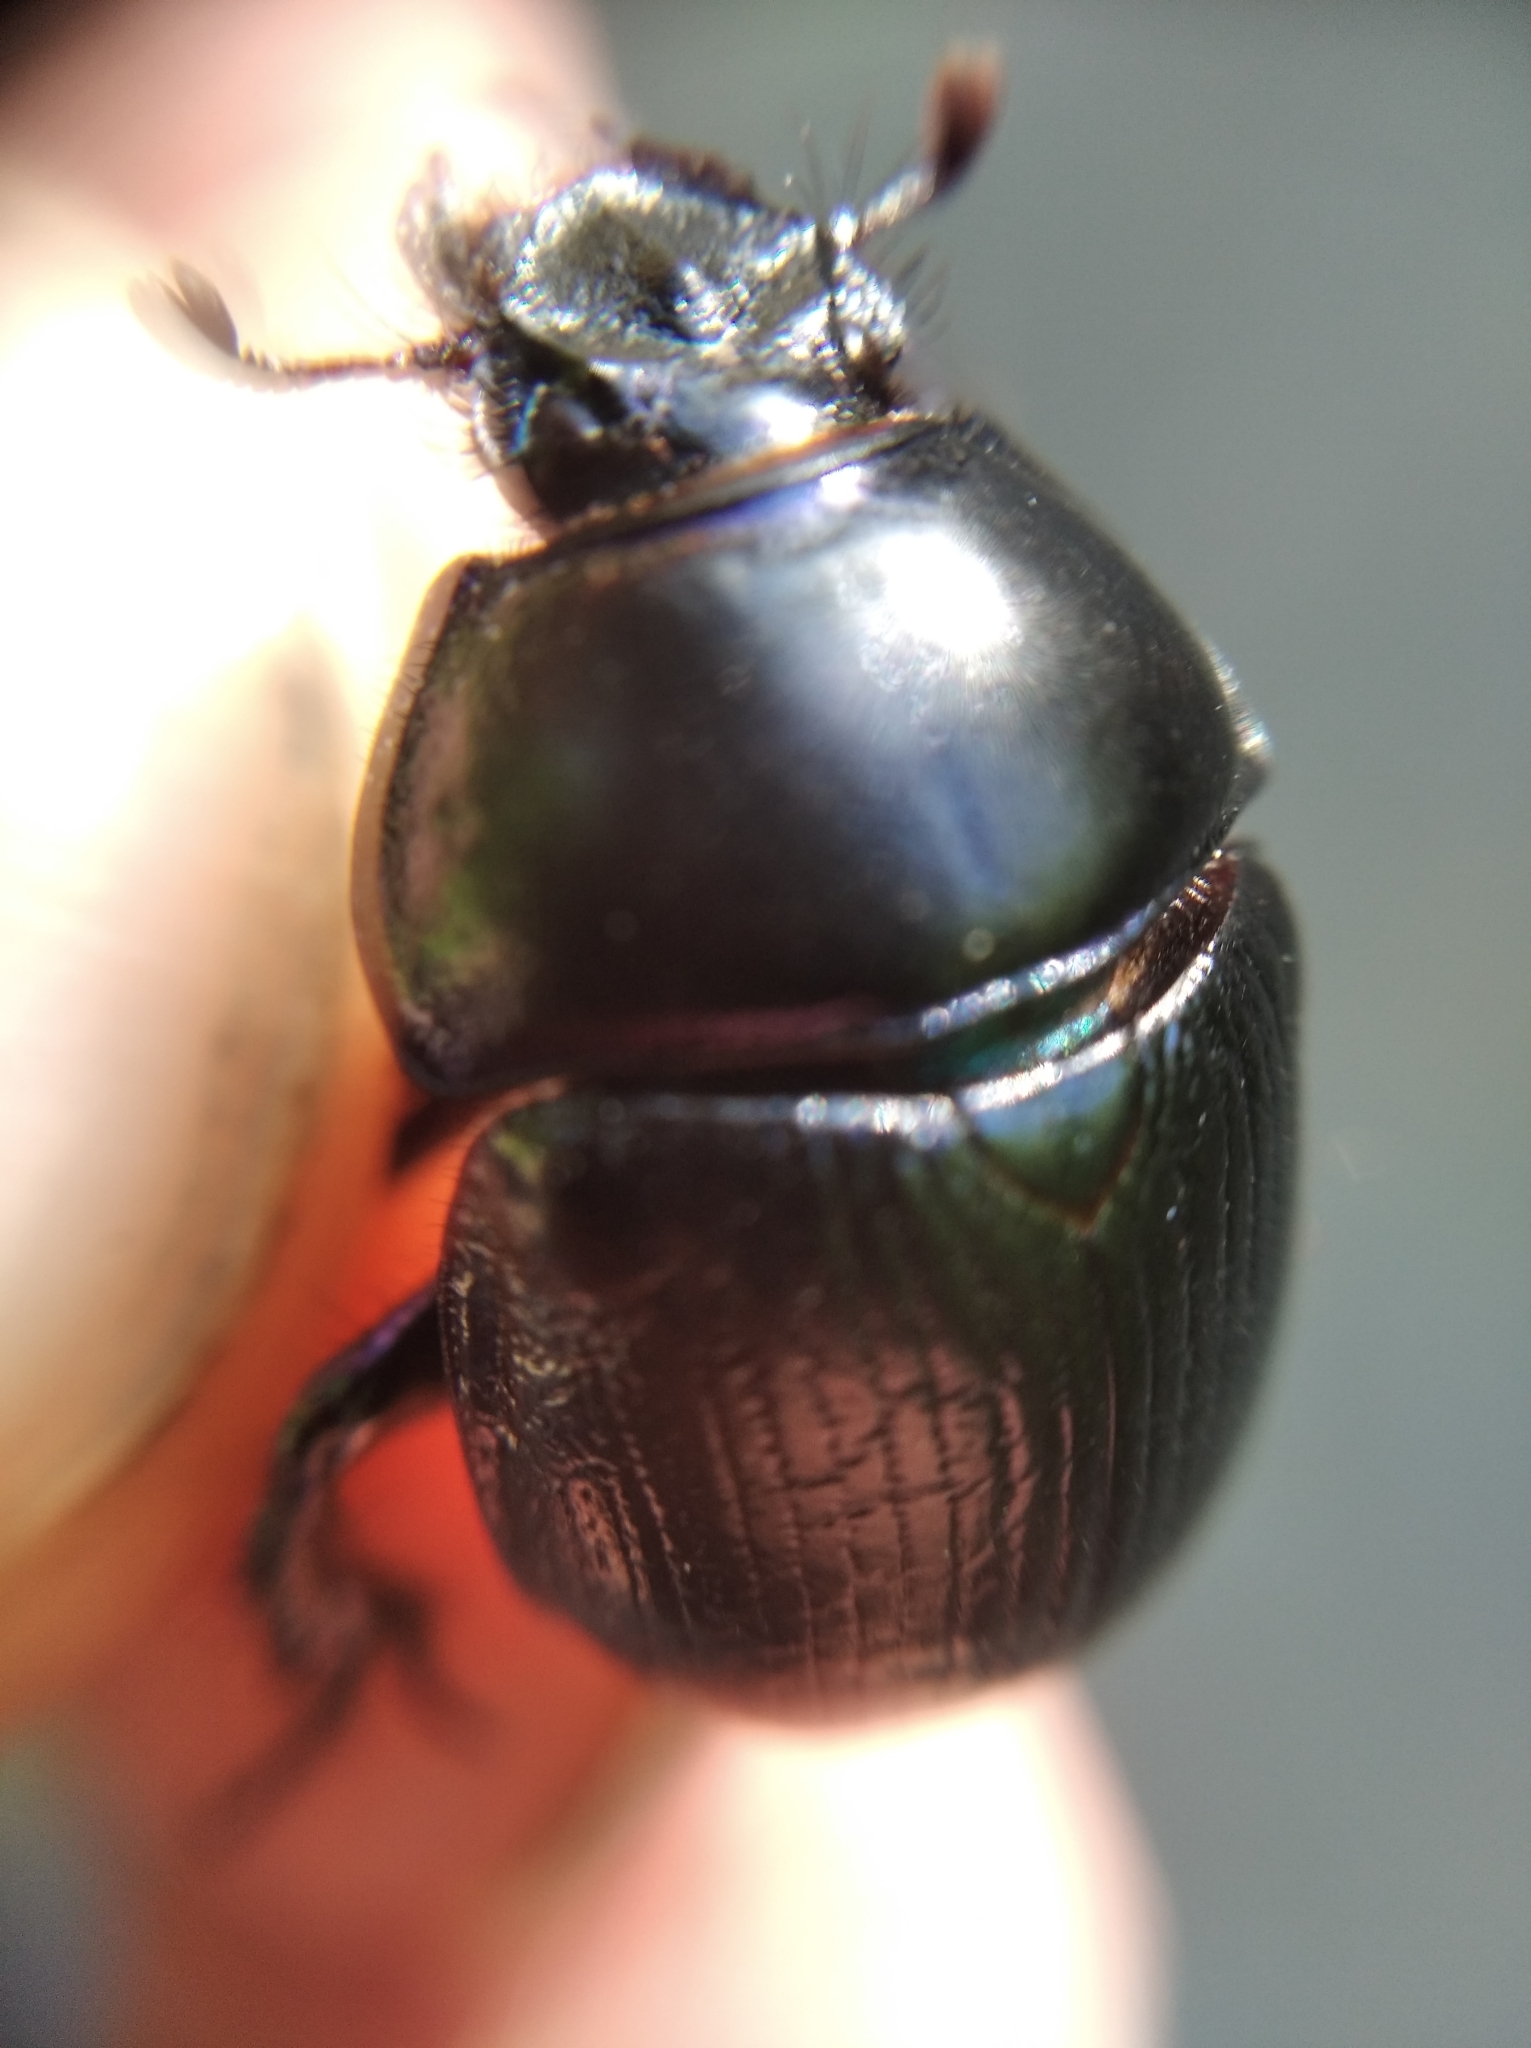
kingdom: Animalia
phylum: Arthropoda
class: Insecta
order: Coleoptera
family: Geotrupidae
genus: Anoplotrupes
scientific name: Anoplotrupes stercorosus
